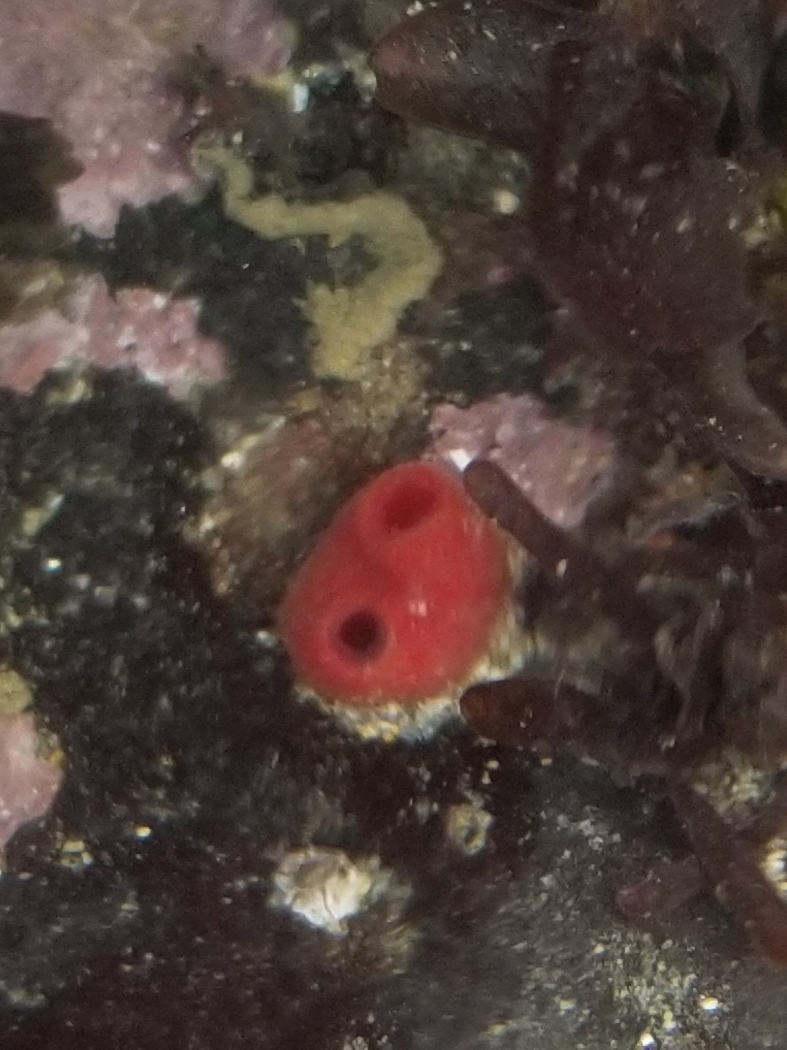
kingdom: Animalia
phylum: Mollusca
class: Bivalvia
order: Adapedonta
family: Hiatellidae
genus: Hiatella
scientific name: Hiatella arctica
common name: Arctic hiatella
